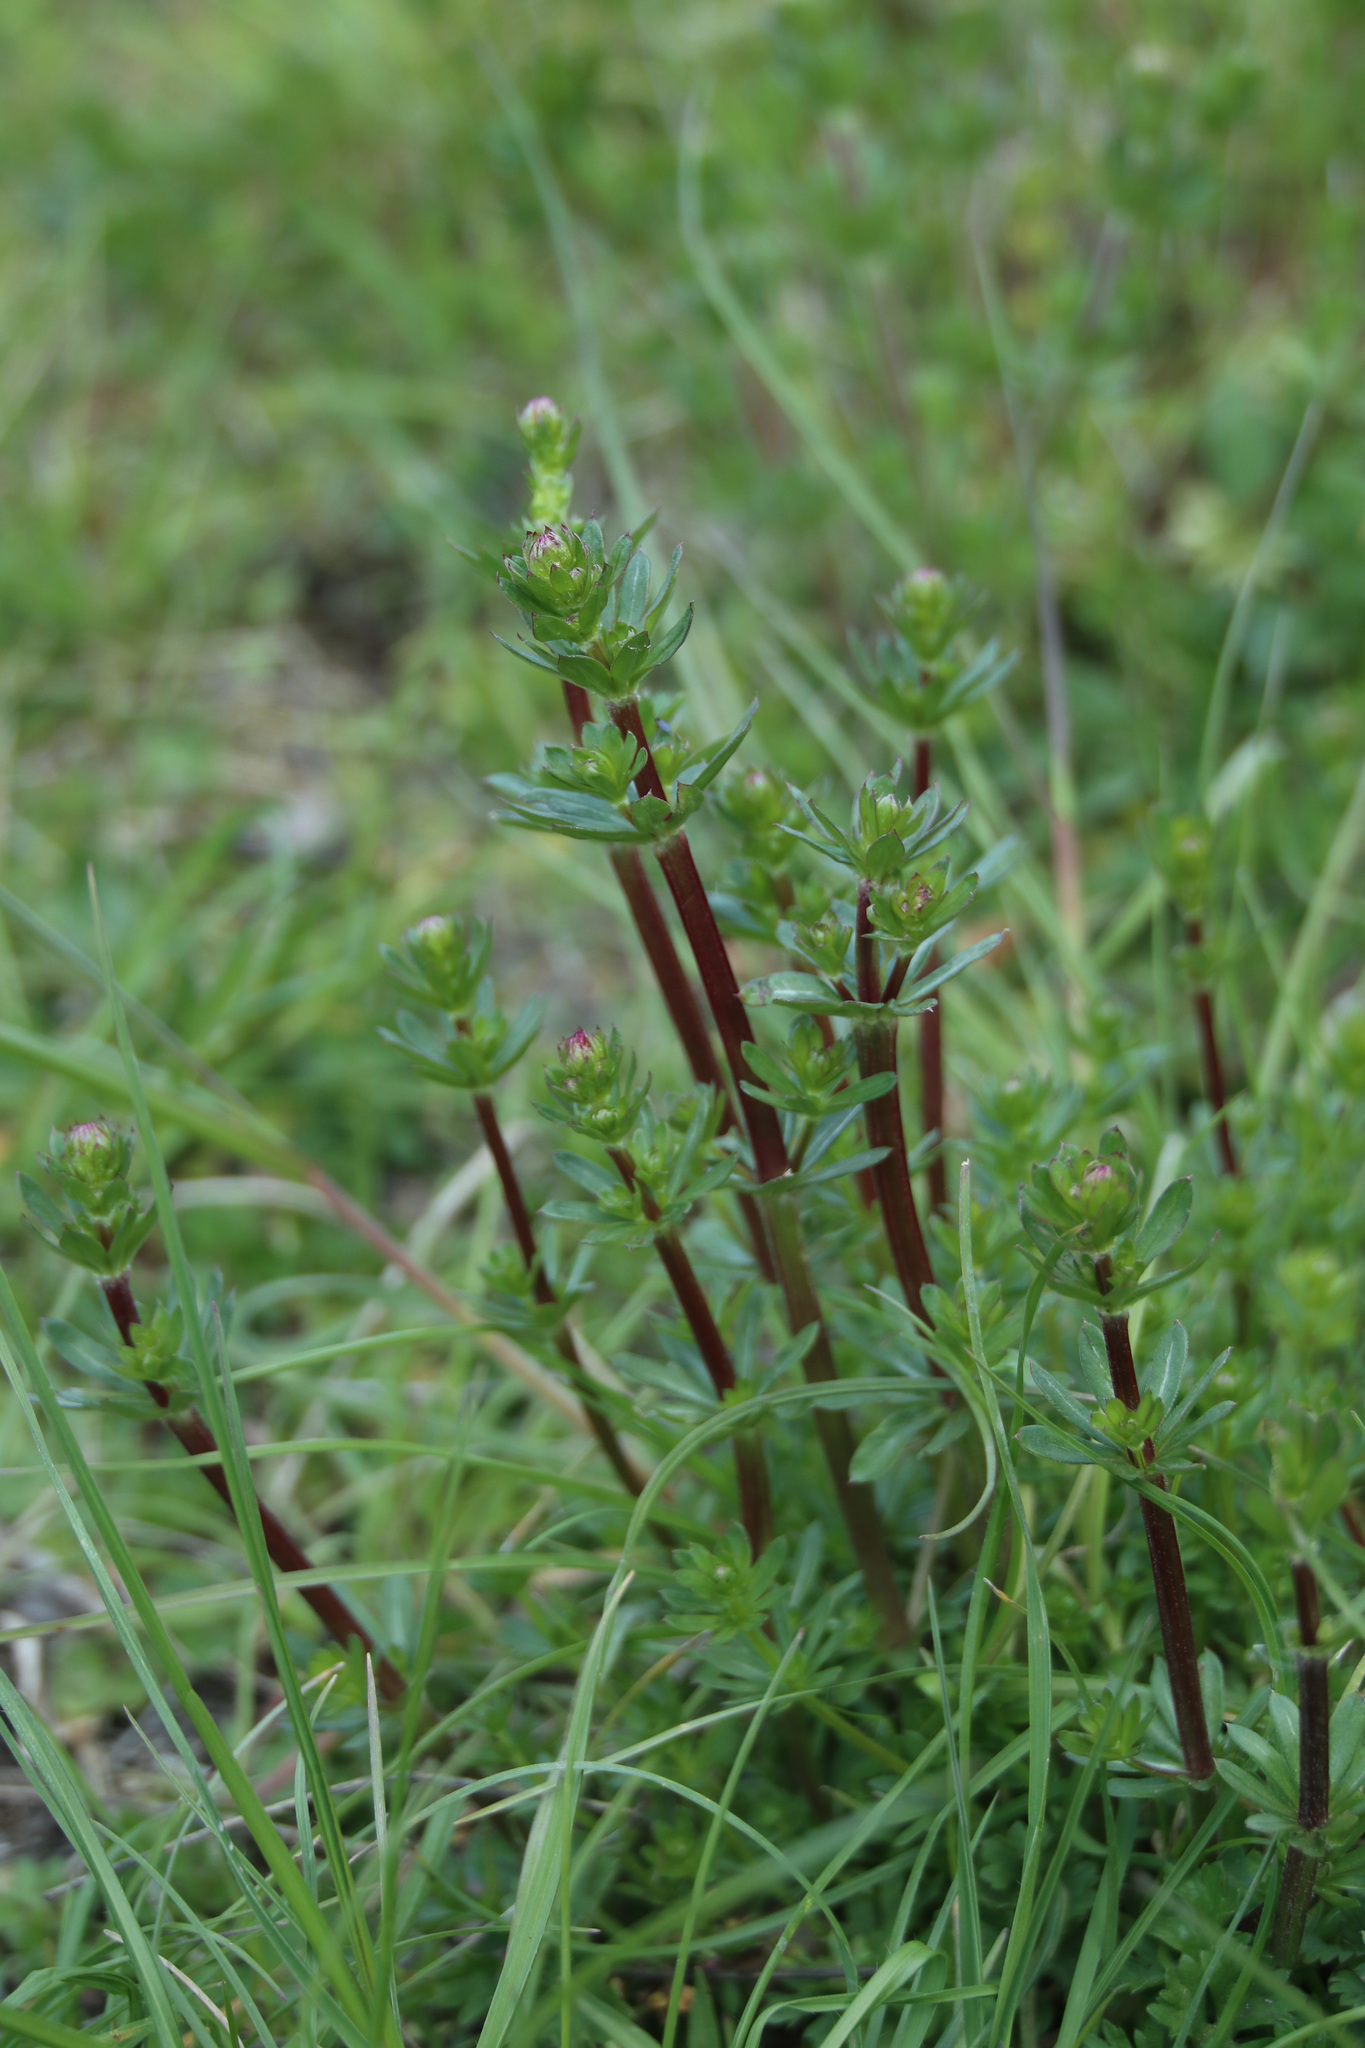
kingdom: Plantae
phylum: Tracheophyta
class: Magnoliopsida
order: Gentianales
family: Rubiaceae
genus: Galium
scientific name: Galium mollugo
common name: Hedge bedstraw
